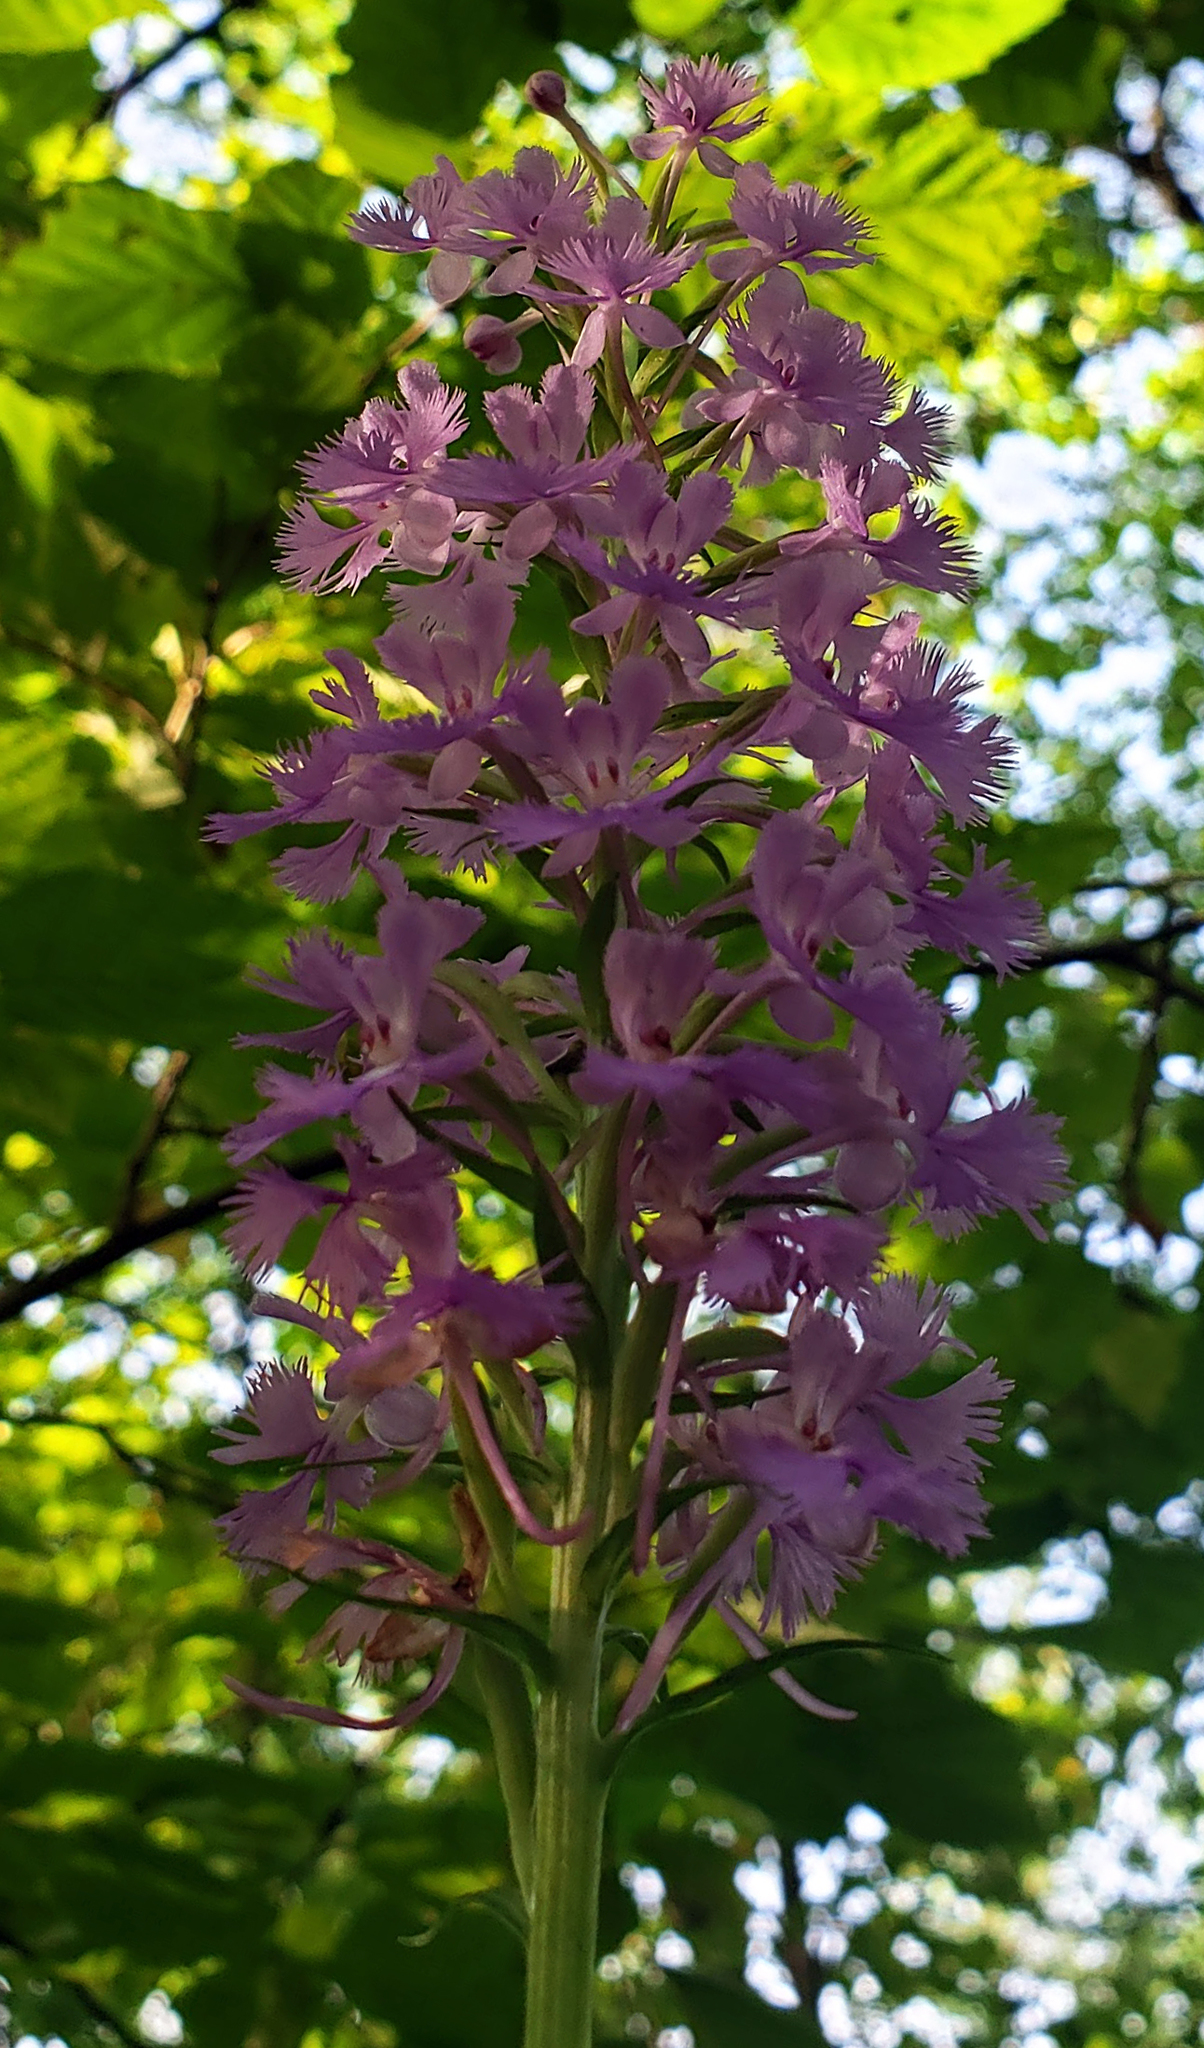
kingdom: Plantae
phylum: Tracheophyta
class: Liliopsida
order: Asparagales
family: Orchidaceae
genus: Platanthera
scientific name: Platanthera psycodes
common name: Lesser purple fringed orchid
